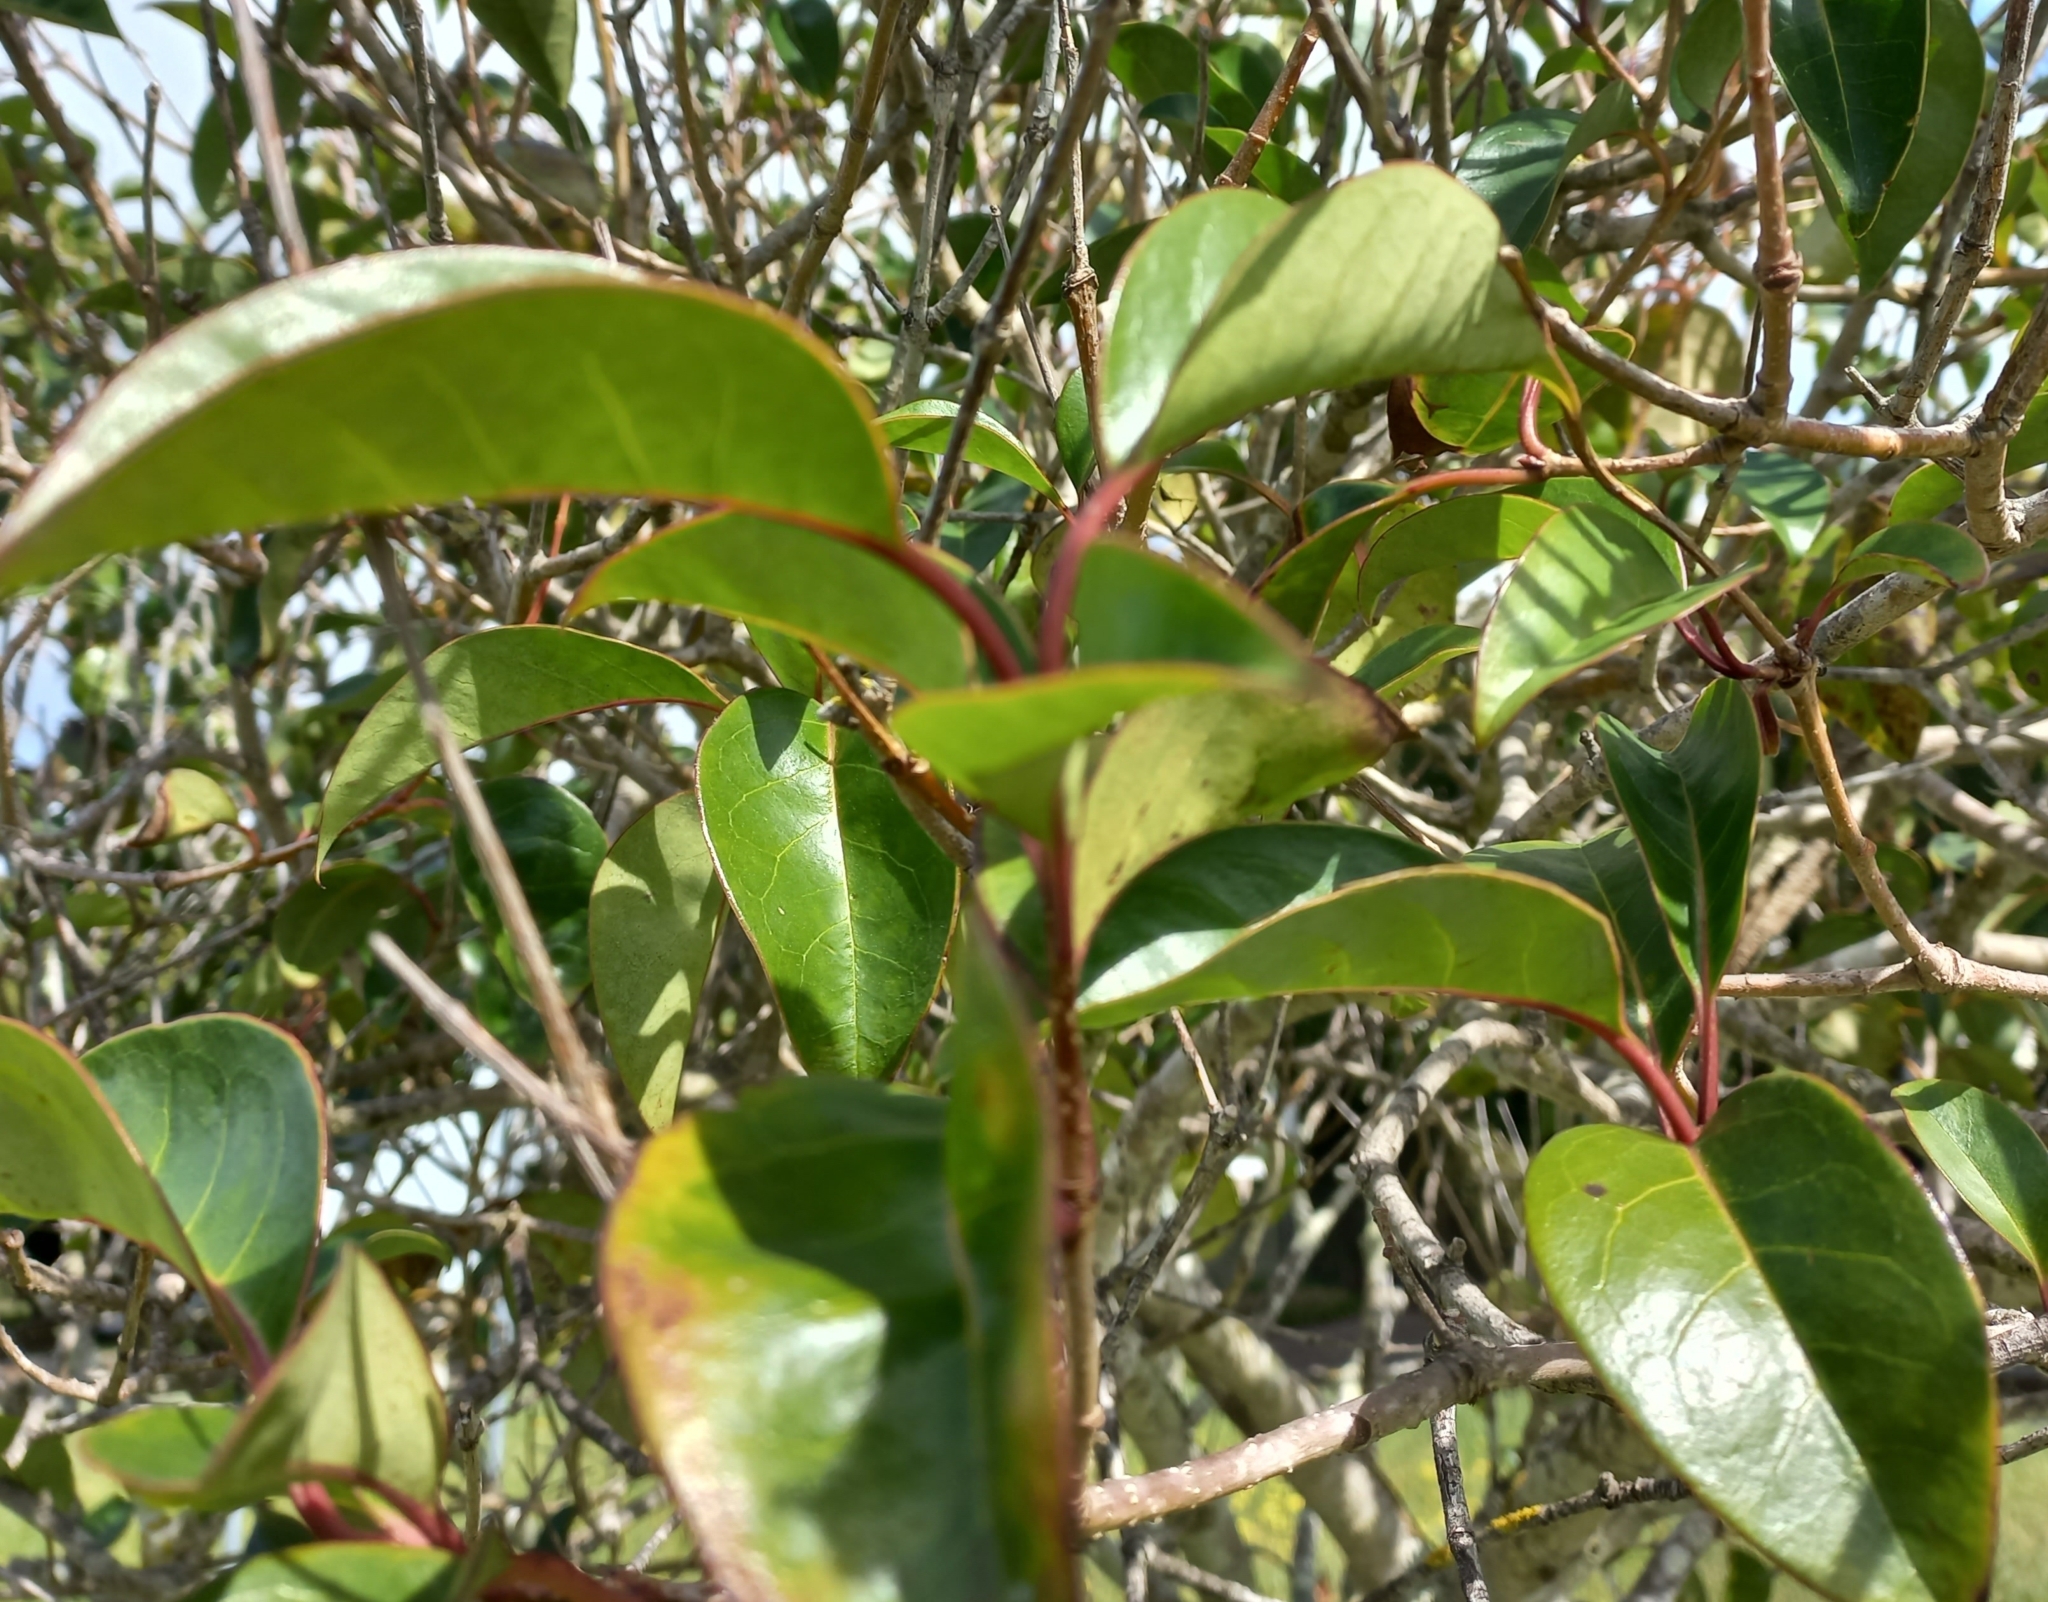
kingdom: Plantae
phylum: Tracheophyta
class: Magnoliopsida
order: Lamiales
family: Oleaceae
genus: Ligustrum
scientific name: Ligustrum lucidum
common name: Glossy privet
